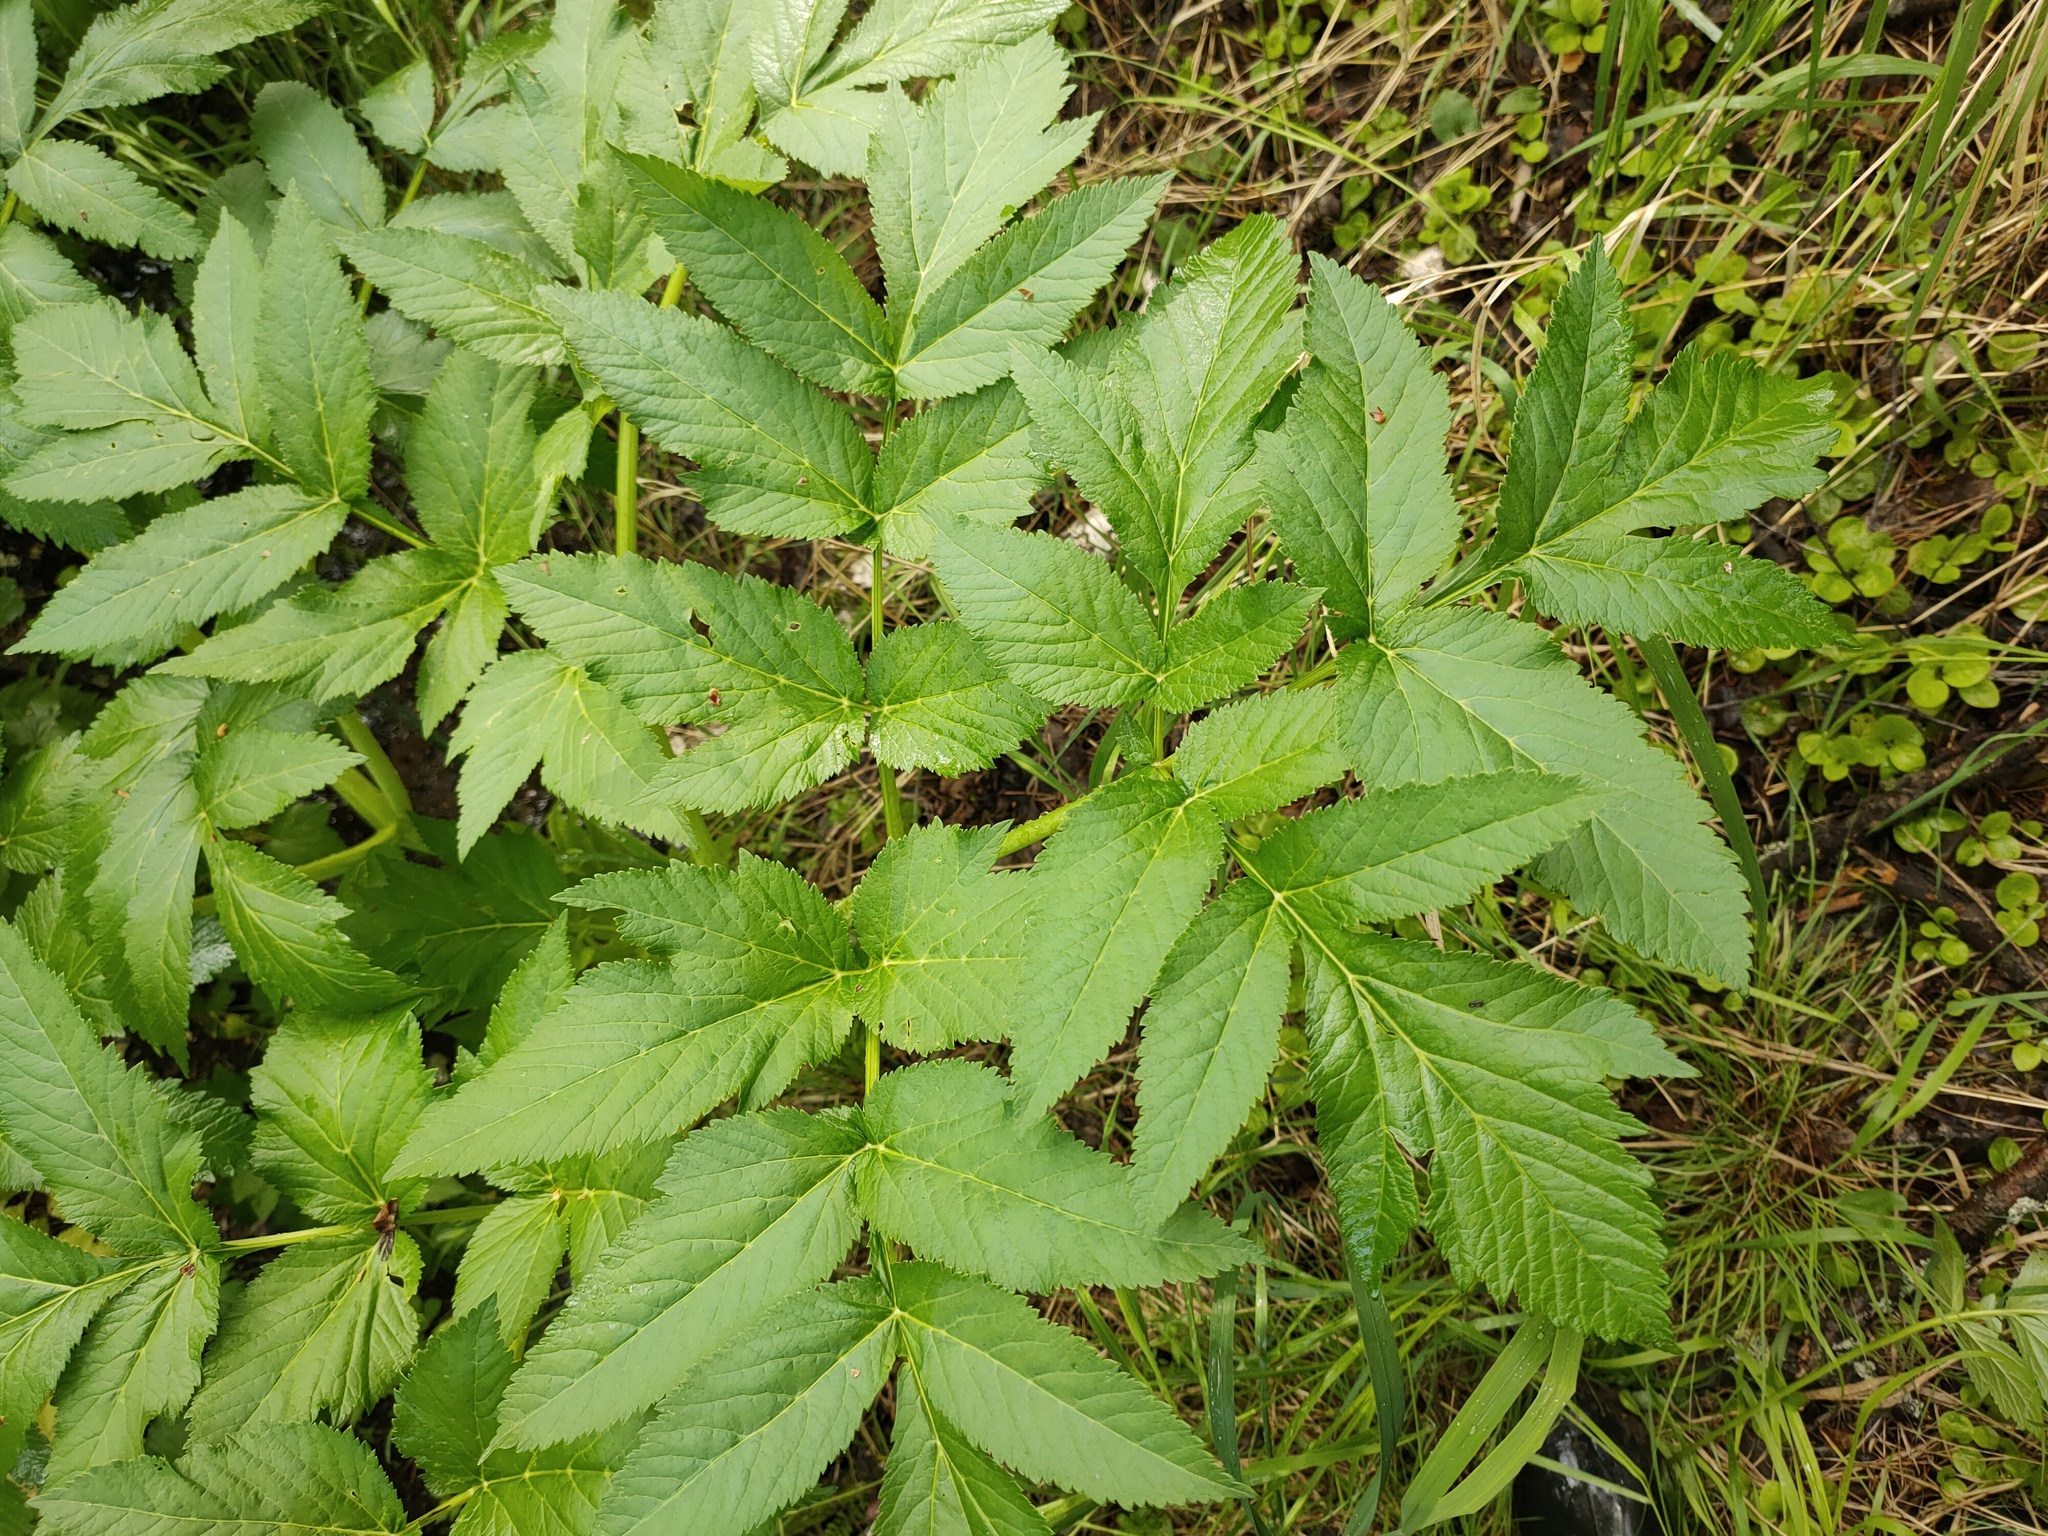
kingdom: Plantae
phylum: Tracheophyta
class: Magnoliopsida
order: Apiales
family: Apiaceae
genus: Angelica
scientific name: Angelica decurrens
